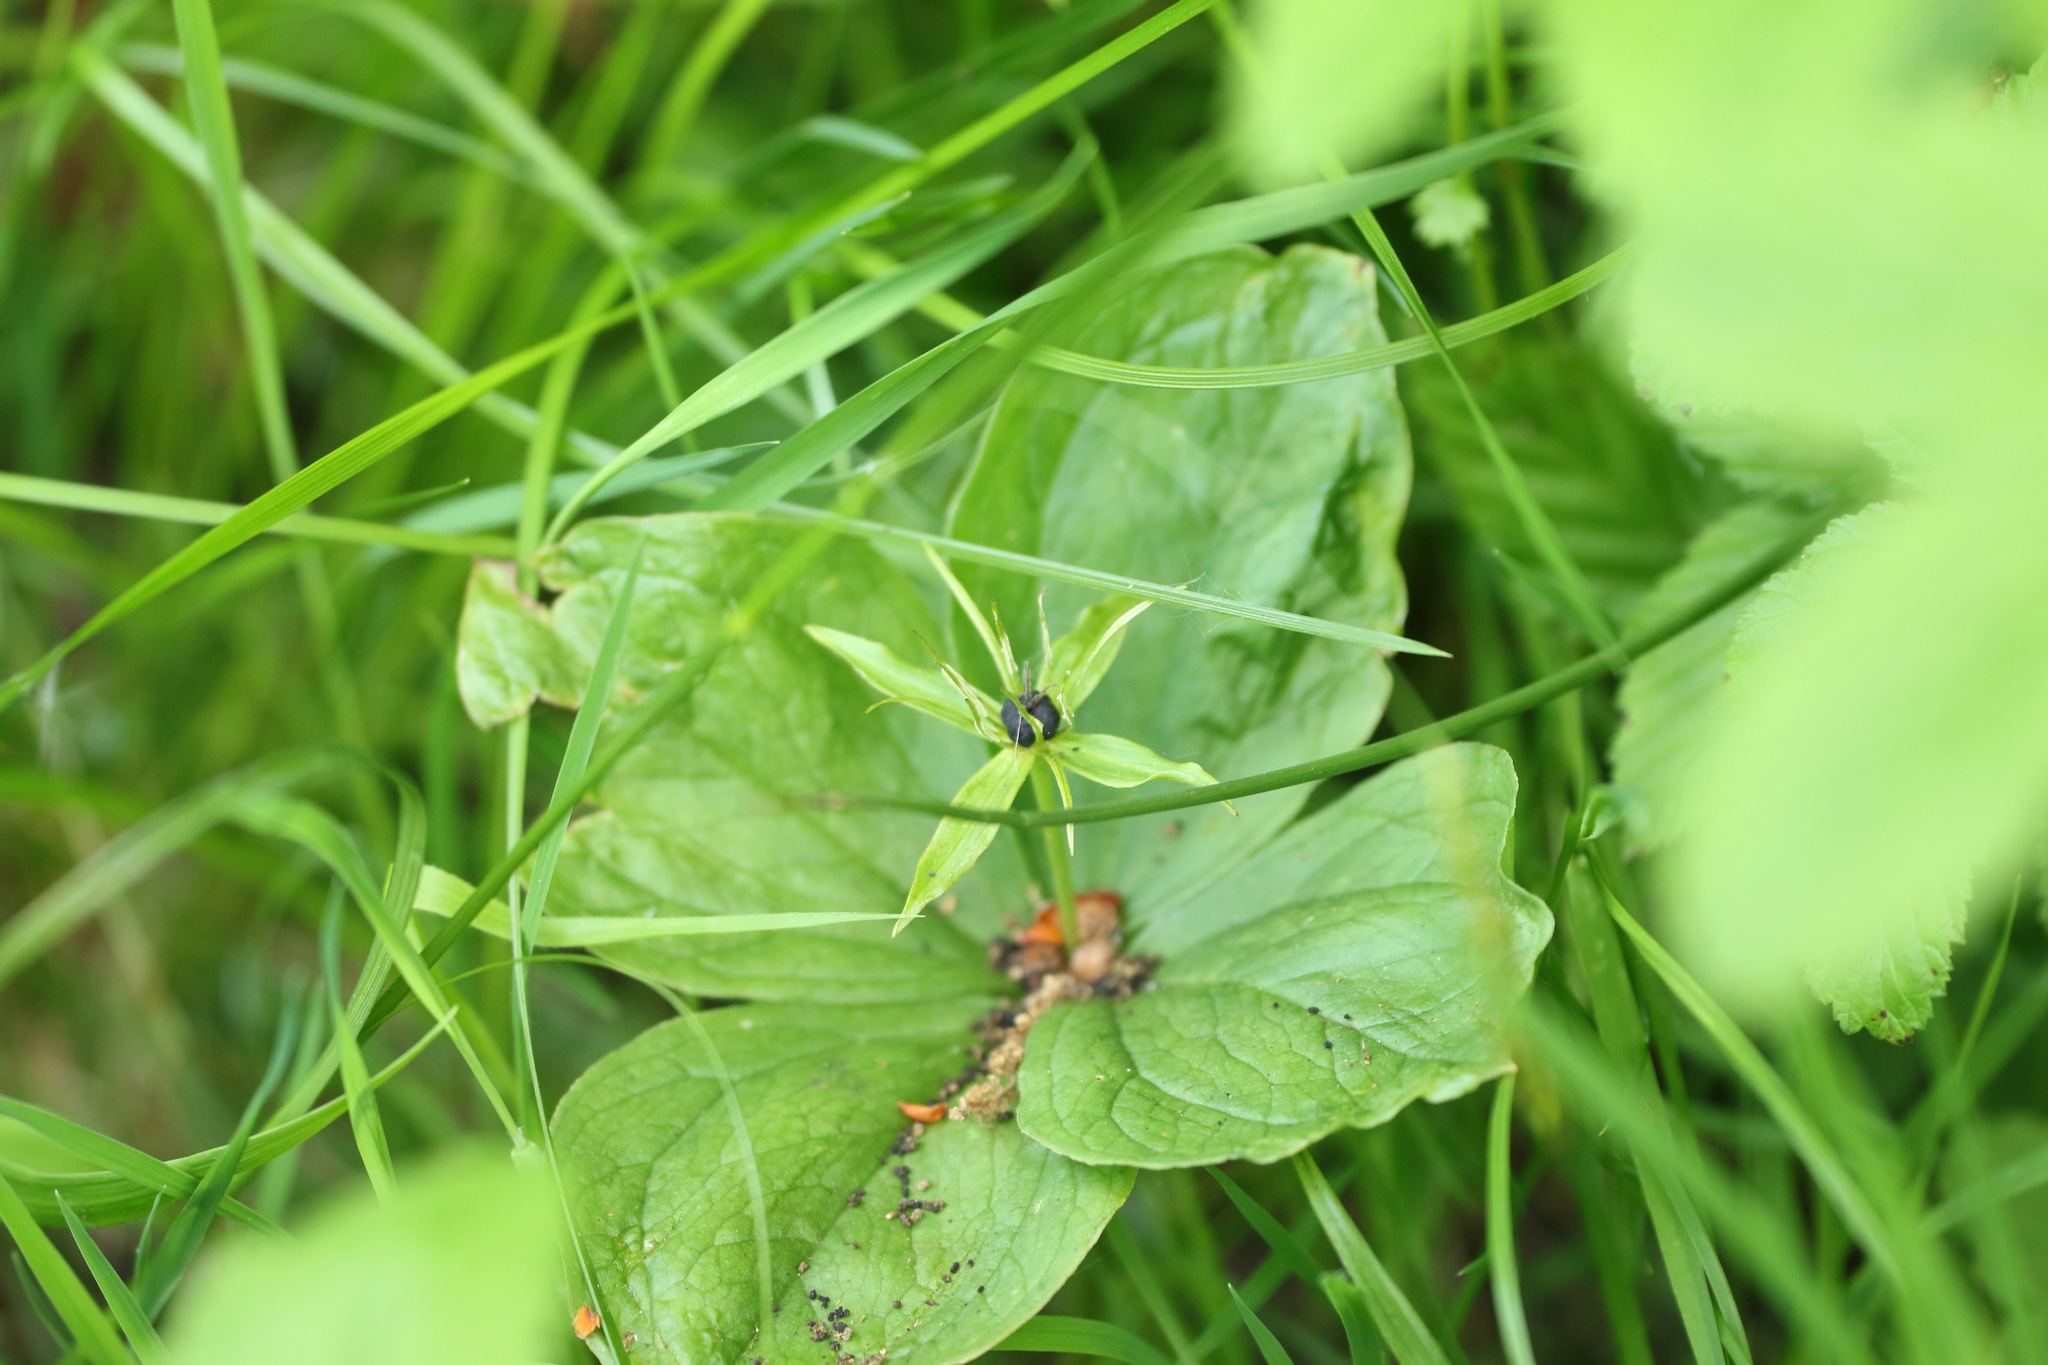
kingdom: Plantae
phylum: Tracheophyta
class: Liliopsida
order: Liliales
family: Melanthiaceae
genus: Paris
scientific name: Paris quadrifolia
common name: Herb-paris
